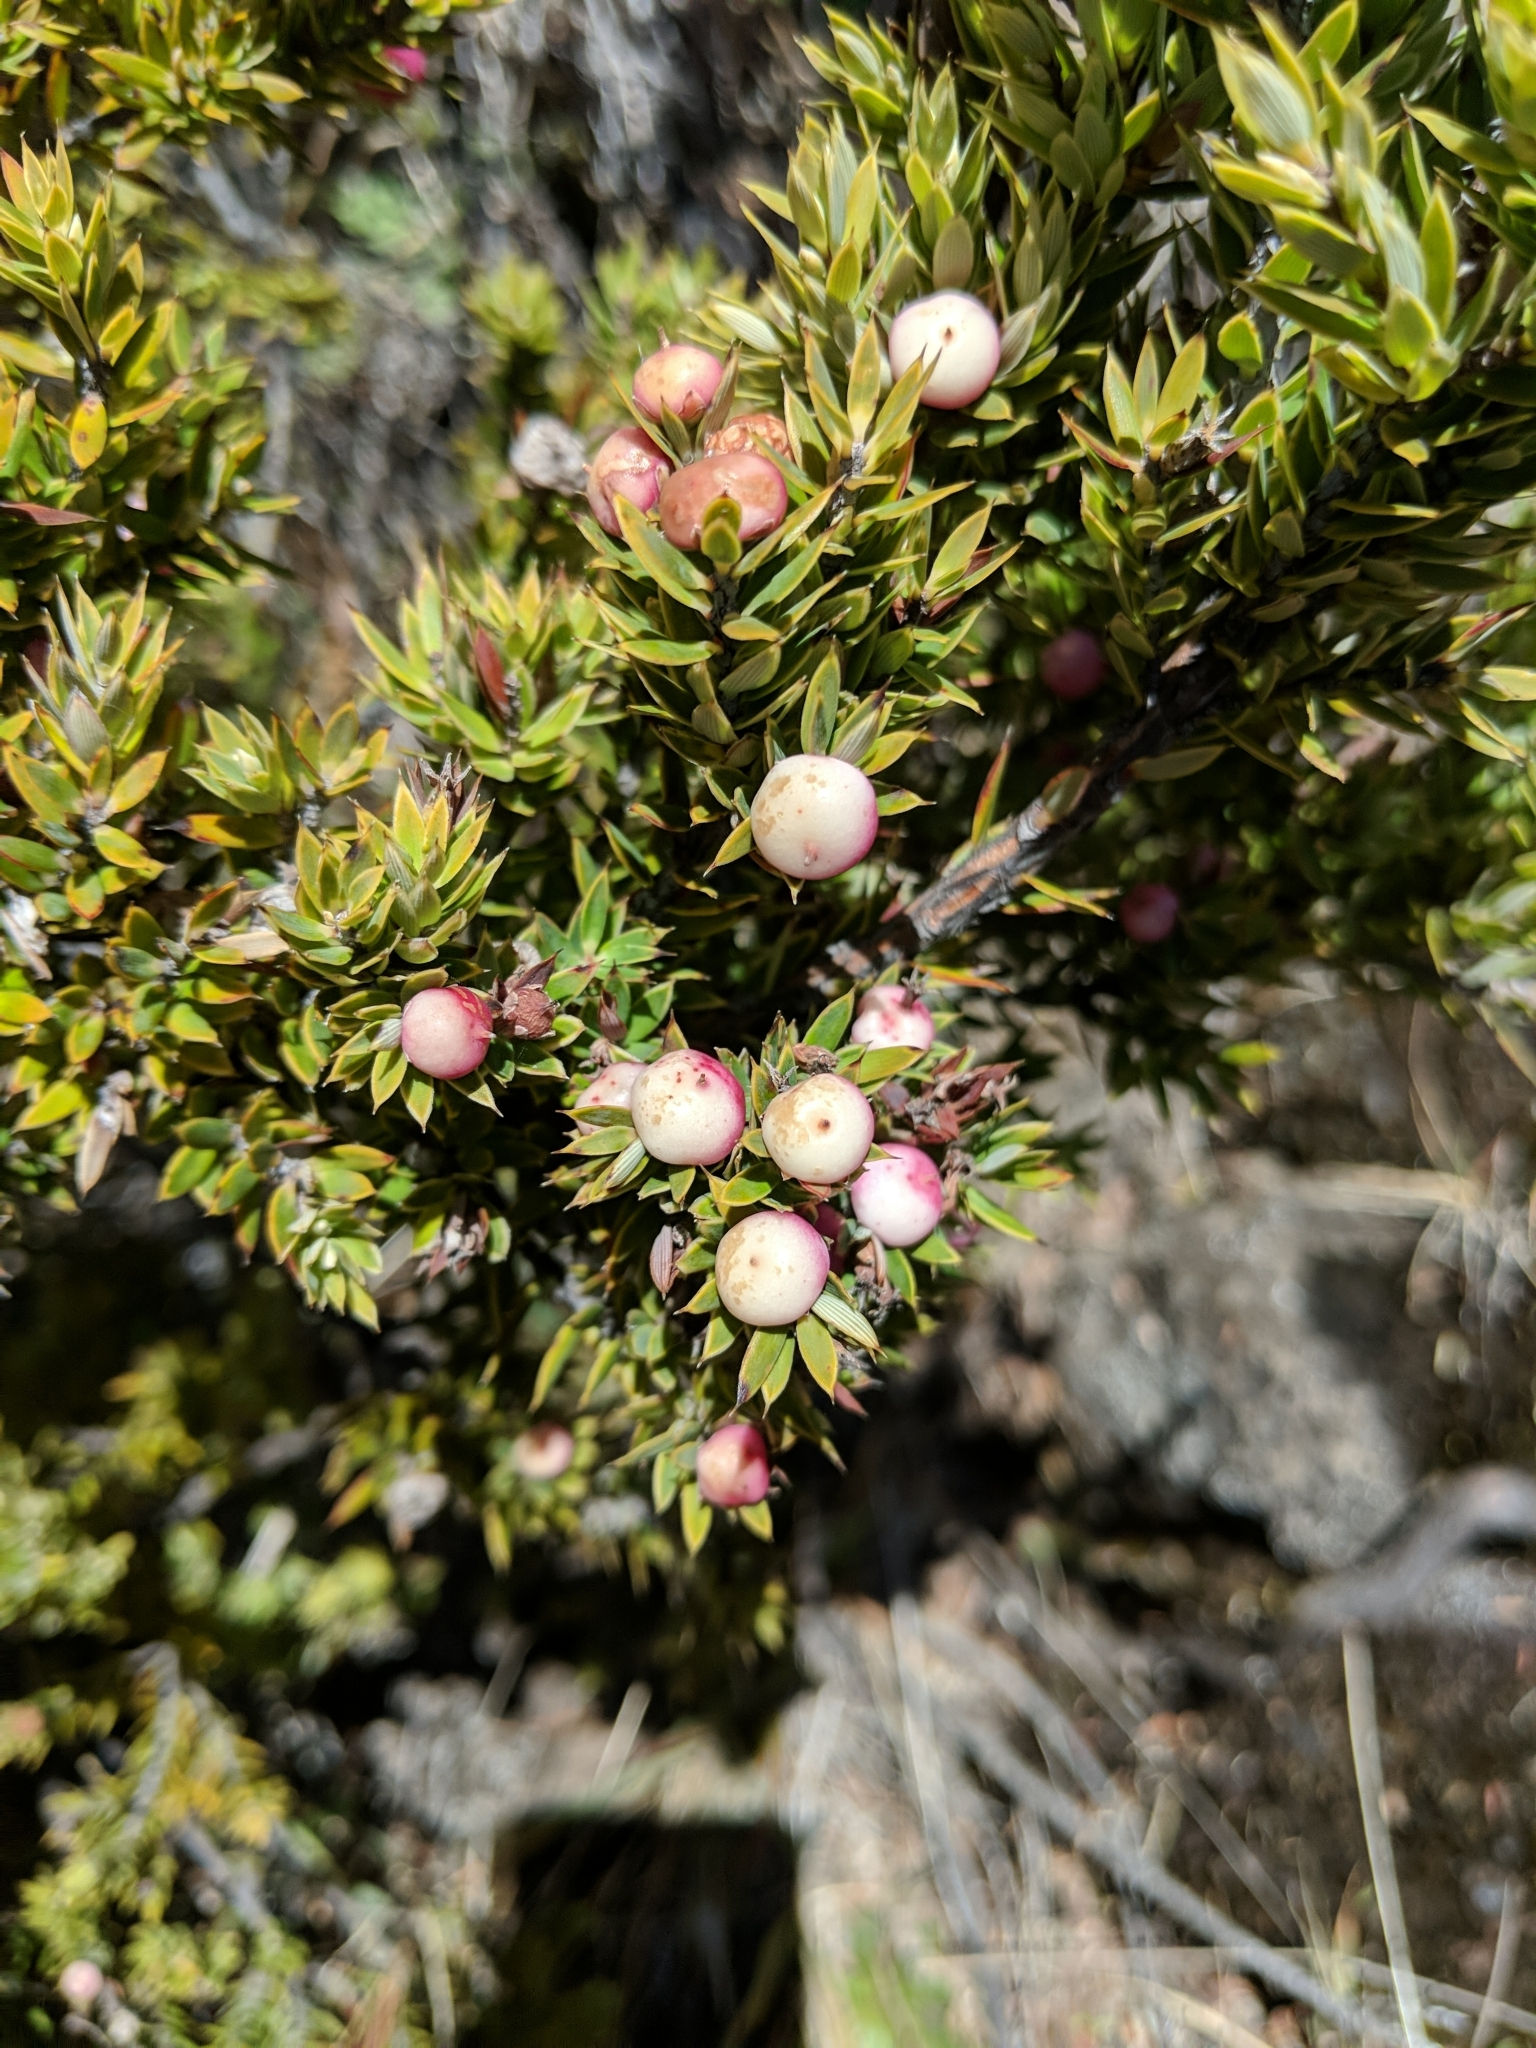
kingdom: Plantae
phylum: Tracheophyta
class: Magnoliopsida
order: Ericales
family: Ericaceae
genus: Leptecophylla
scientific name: Leptecophylla tameiameiae
